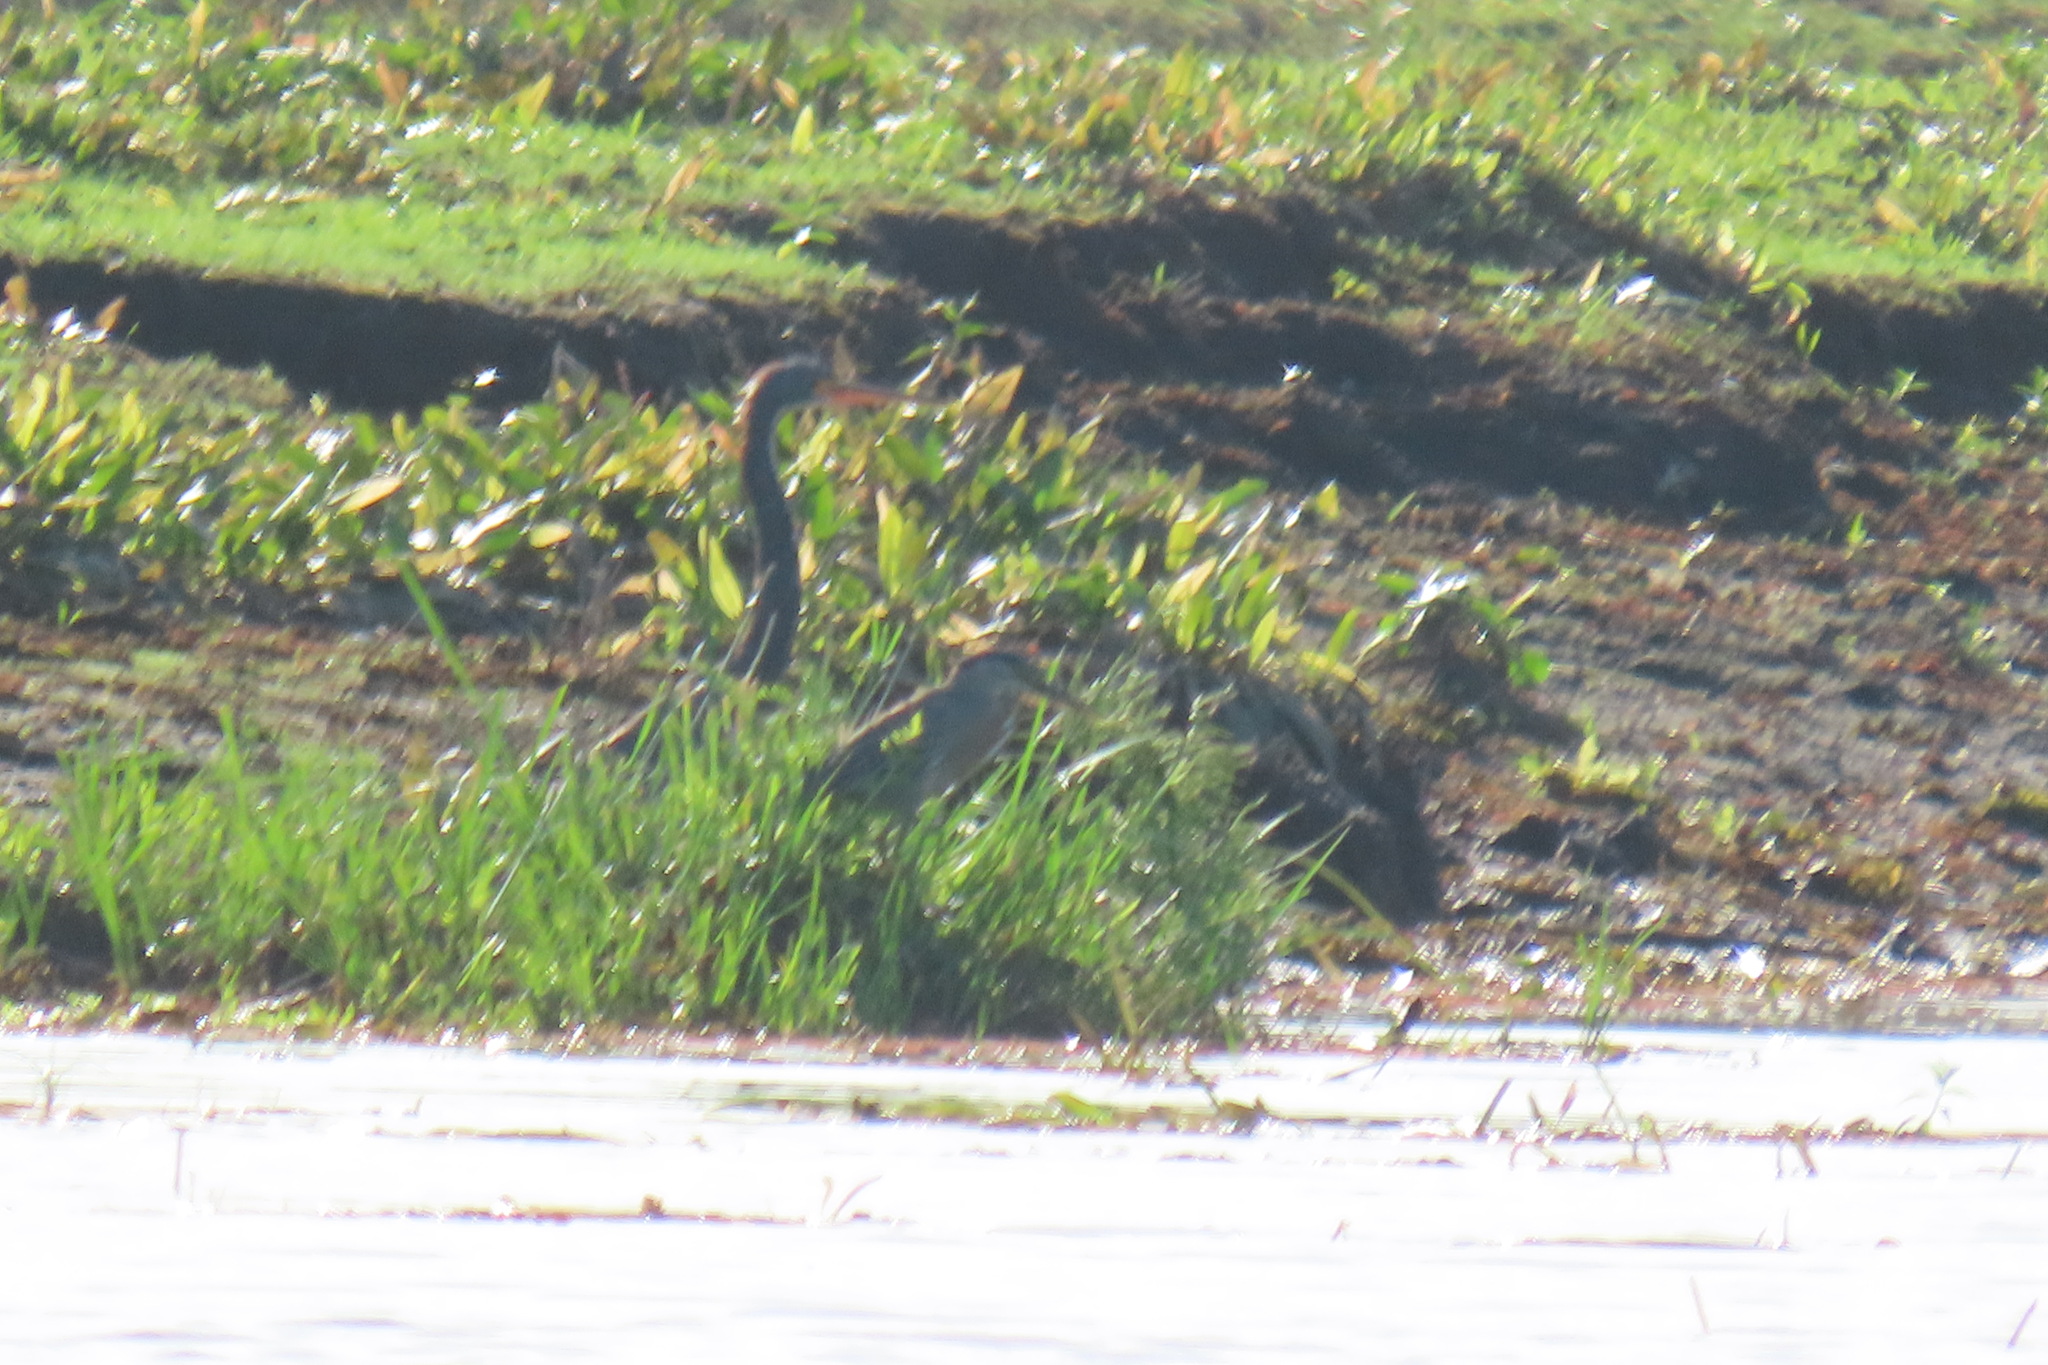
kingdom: Animalia
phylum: Chordata
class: Aves
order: Pelecaniformes
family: Ardeidae
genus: Egretta
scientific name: Egretta tricolor
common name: Tricolored heron
